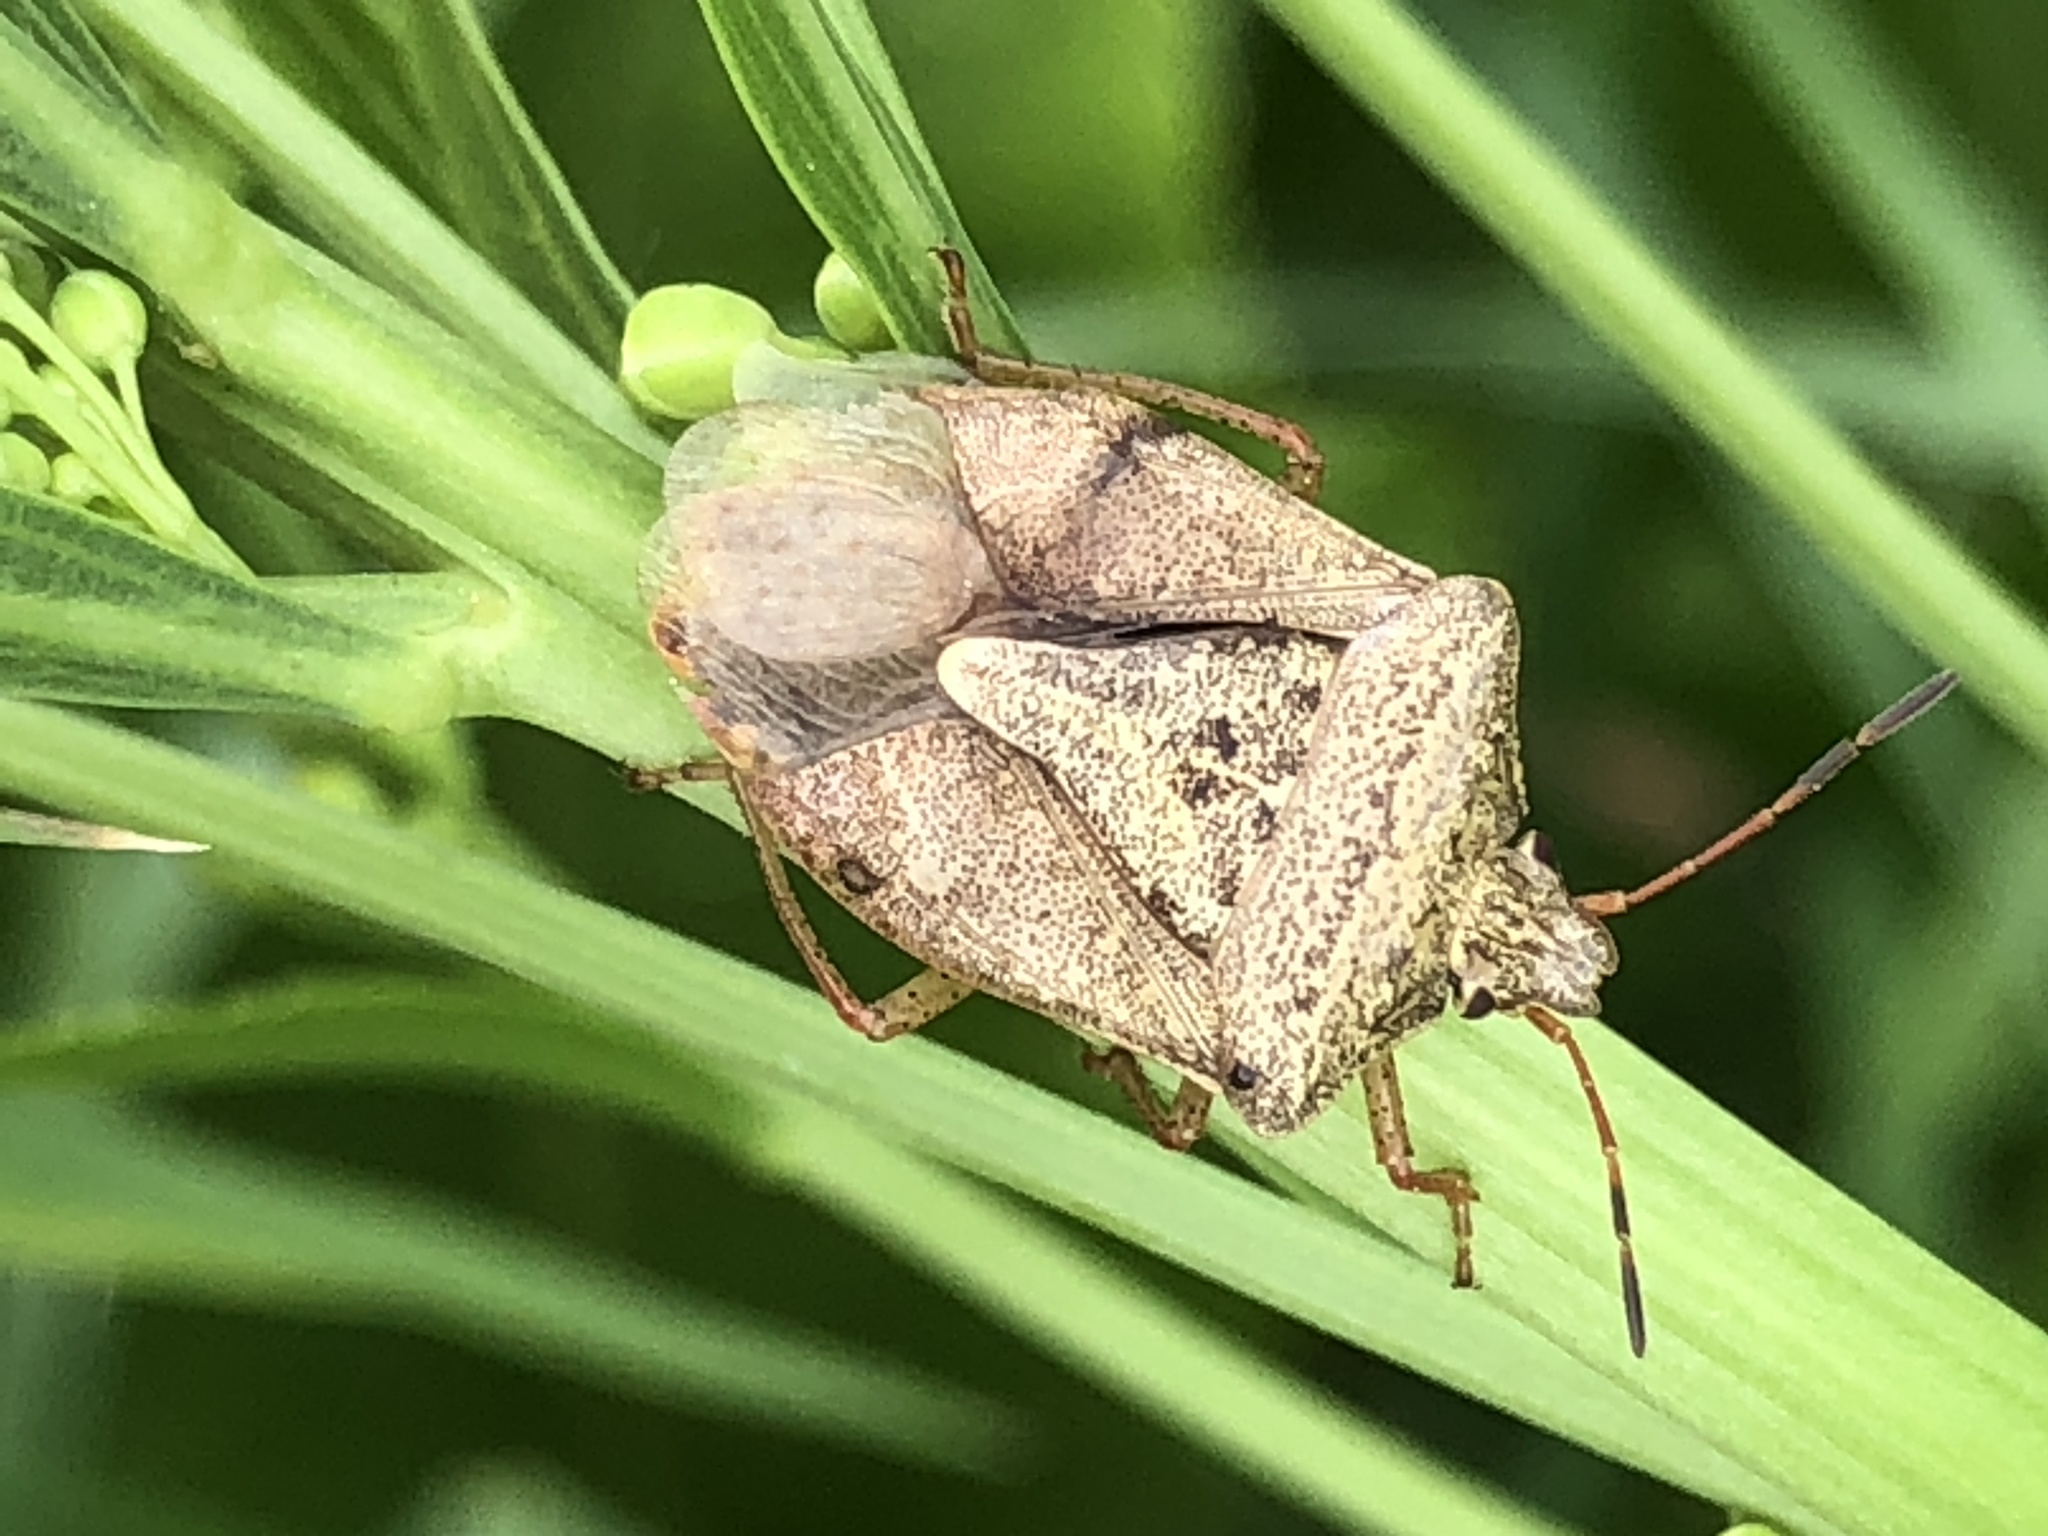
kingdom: Animalia
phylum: Arthropoda
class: Insecta
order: Hemiptera
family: Pentatomidae
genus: Euschistus
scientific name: Euschistus servus
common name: Brown stink bug
